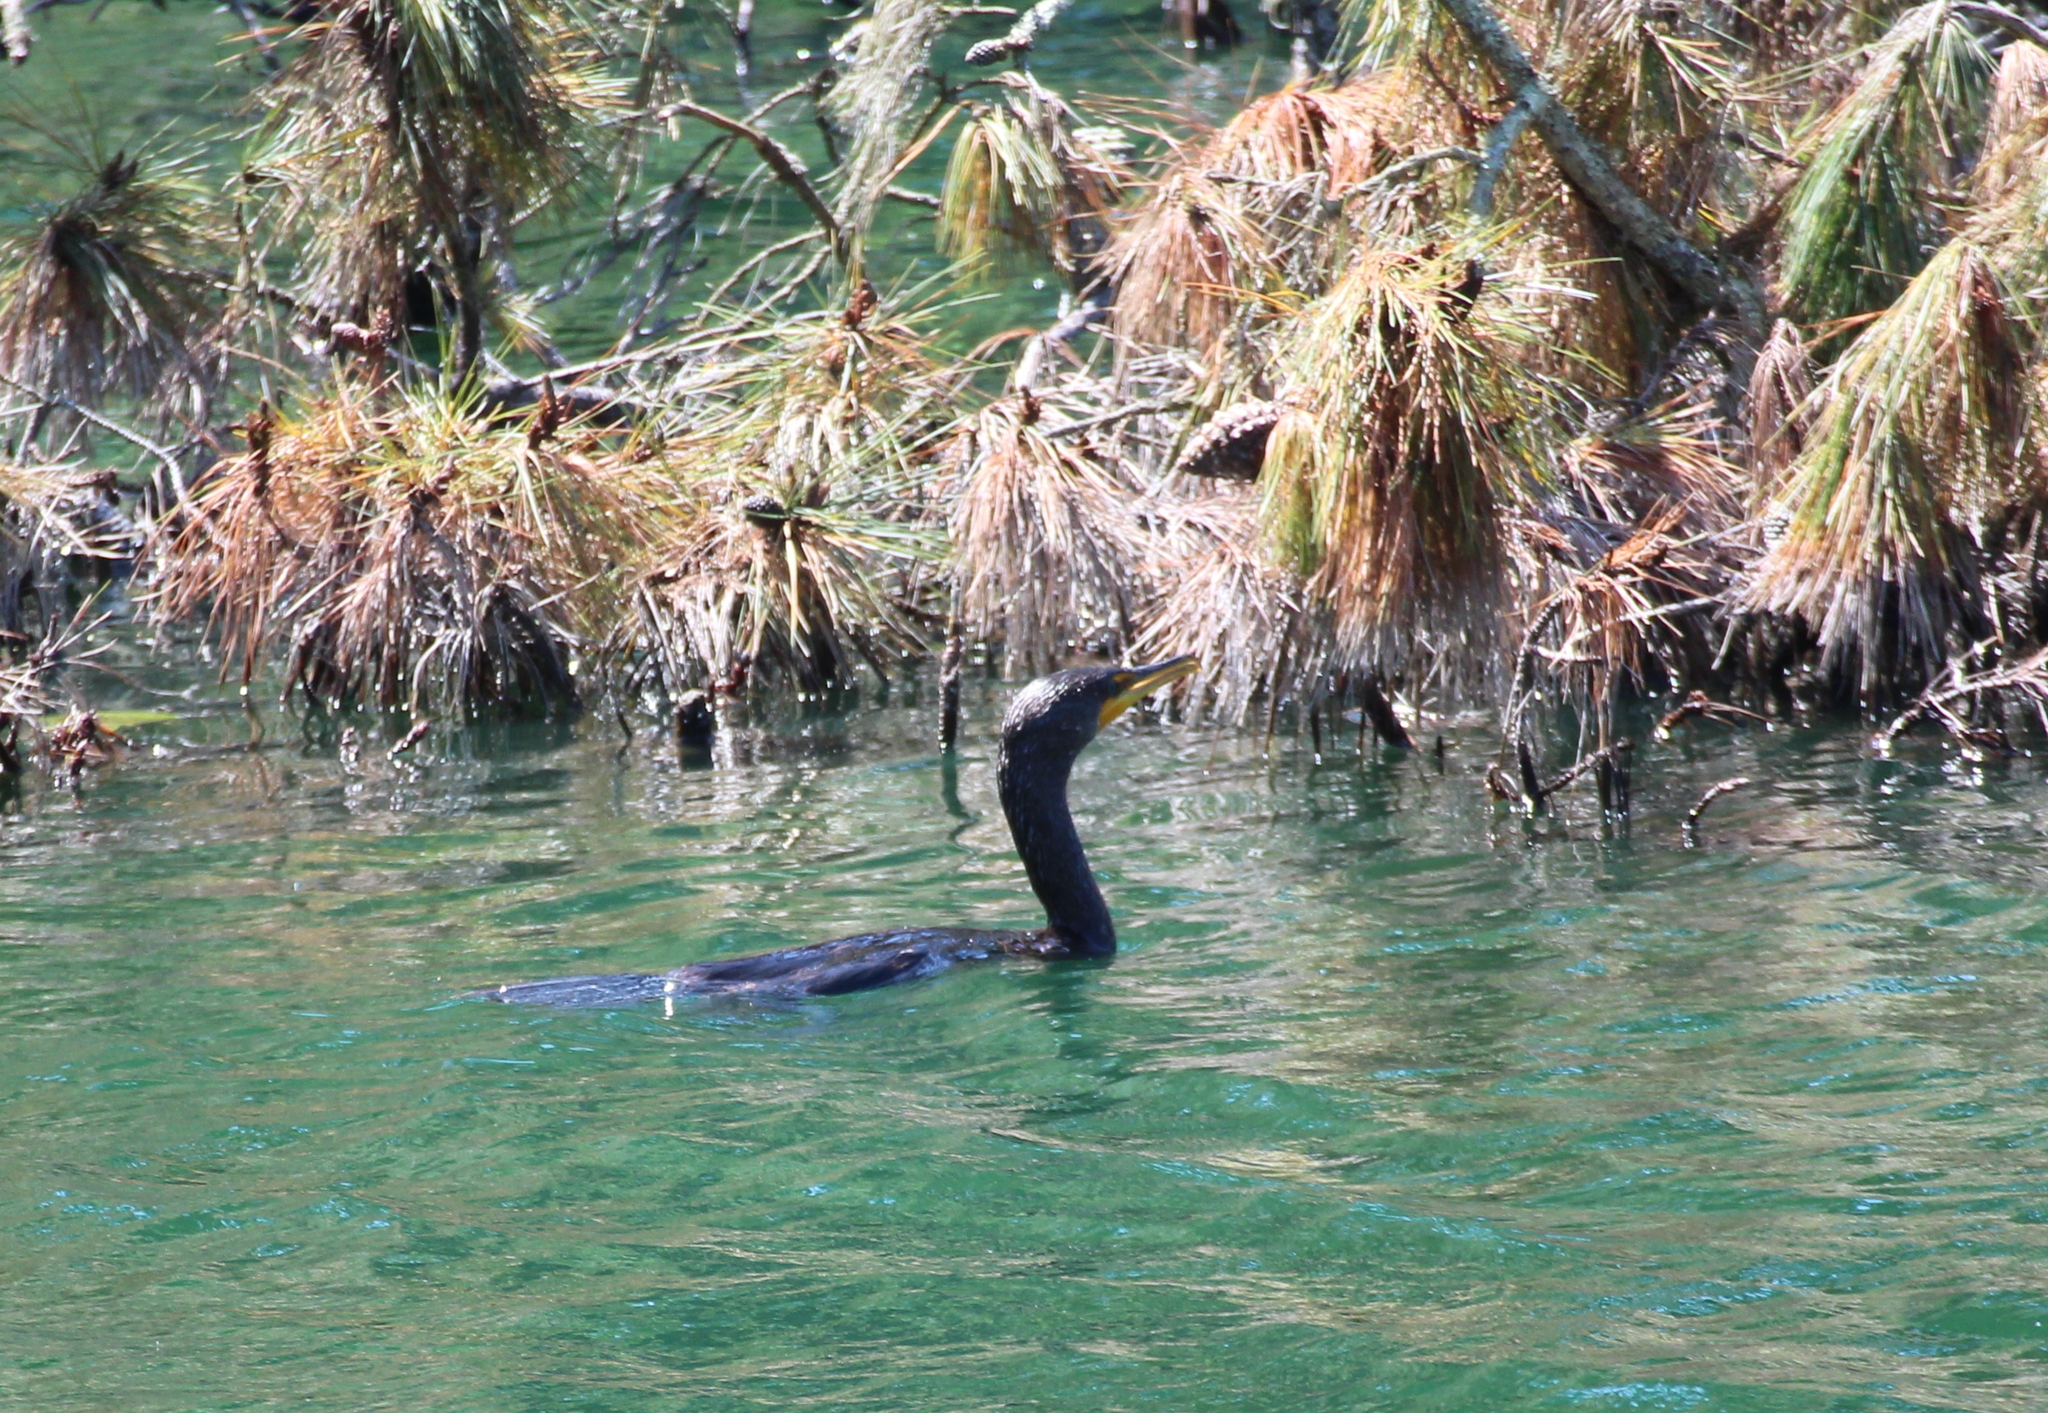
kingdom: Animalia
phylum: Chordata
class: Aves
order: Suliformes
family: Phalacrocoracidae
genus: Phalacrocorax
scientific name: Phalacrocorax auritus
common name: Double-crested cormorant
